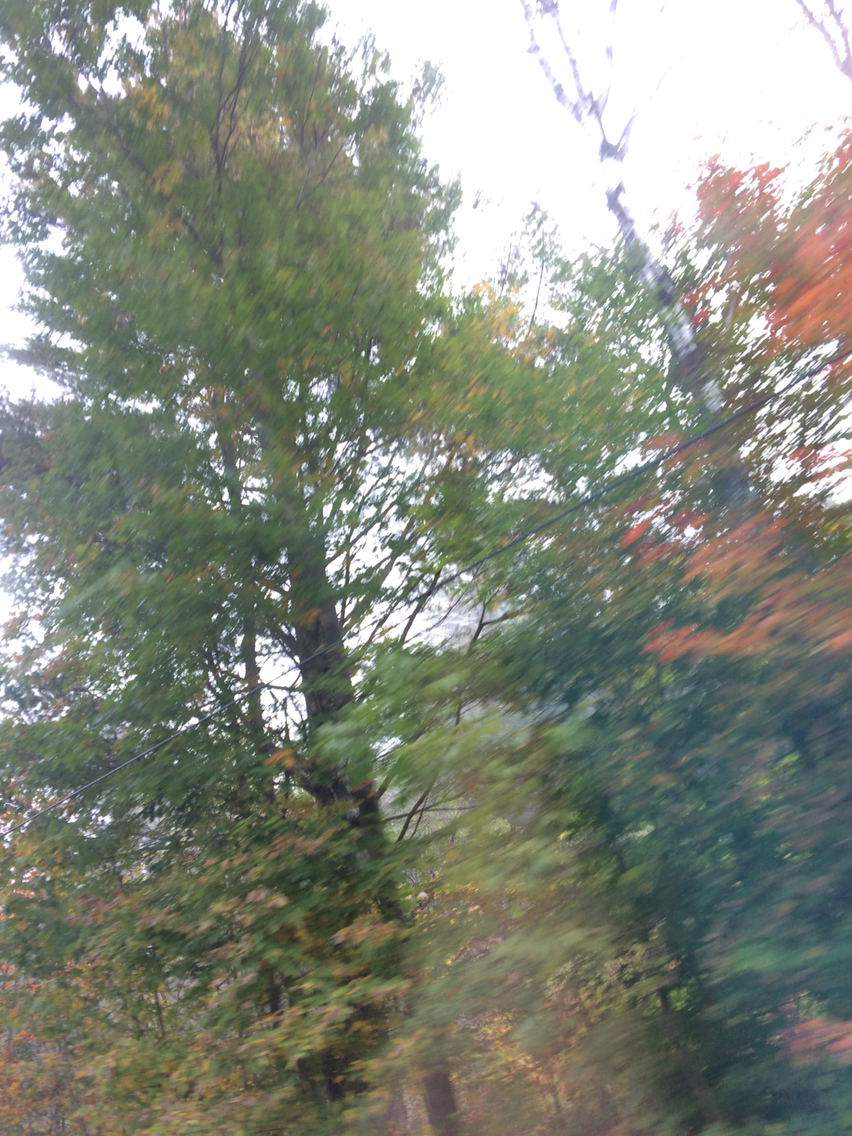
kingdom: Plantae
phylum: Tracheophyta
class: Magnoliopsida
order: Fagales
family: Fagaceae
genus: Quercus
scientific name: Quercus rubra
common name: Red oak
